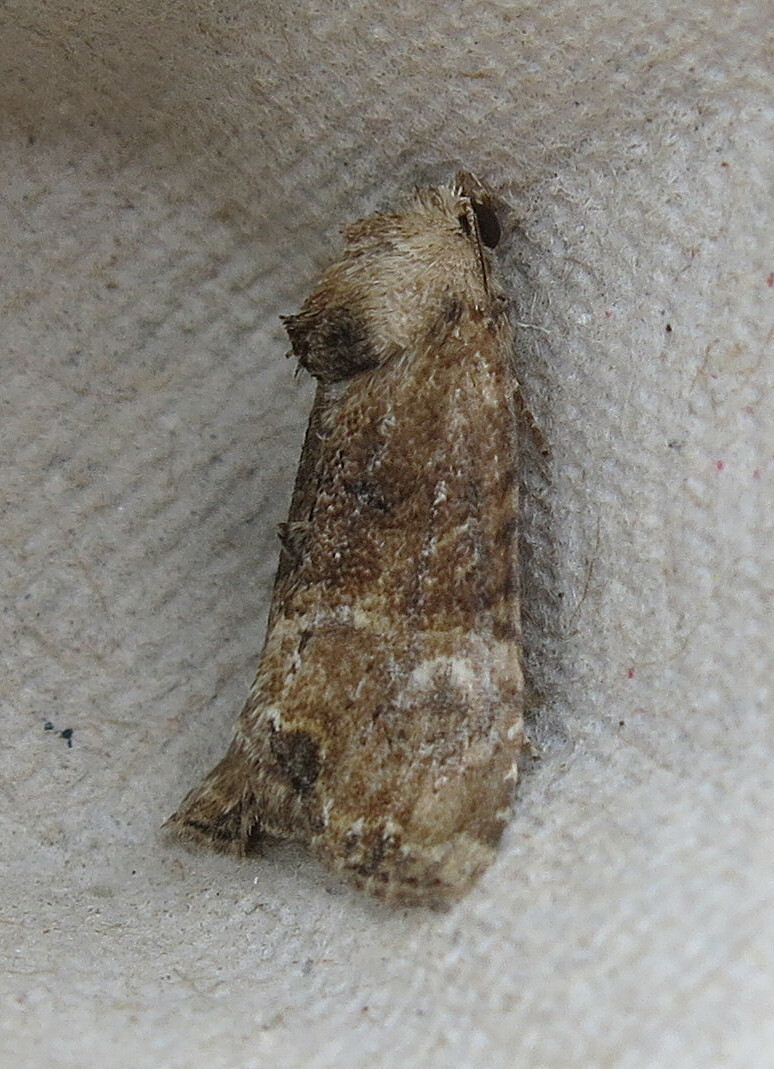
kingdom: Animalia
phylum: Arthropoda
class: Insecta
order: Lepidoptera
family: Noctuidae
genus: Mesoligia
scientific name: Mesoligia furuncula
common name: Cloaked minor
